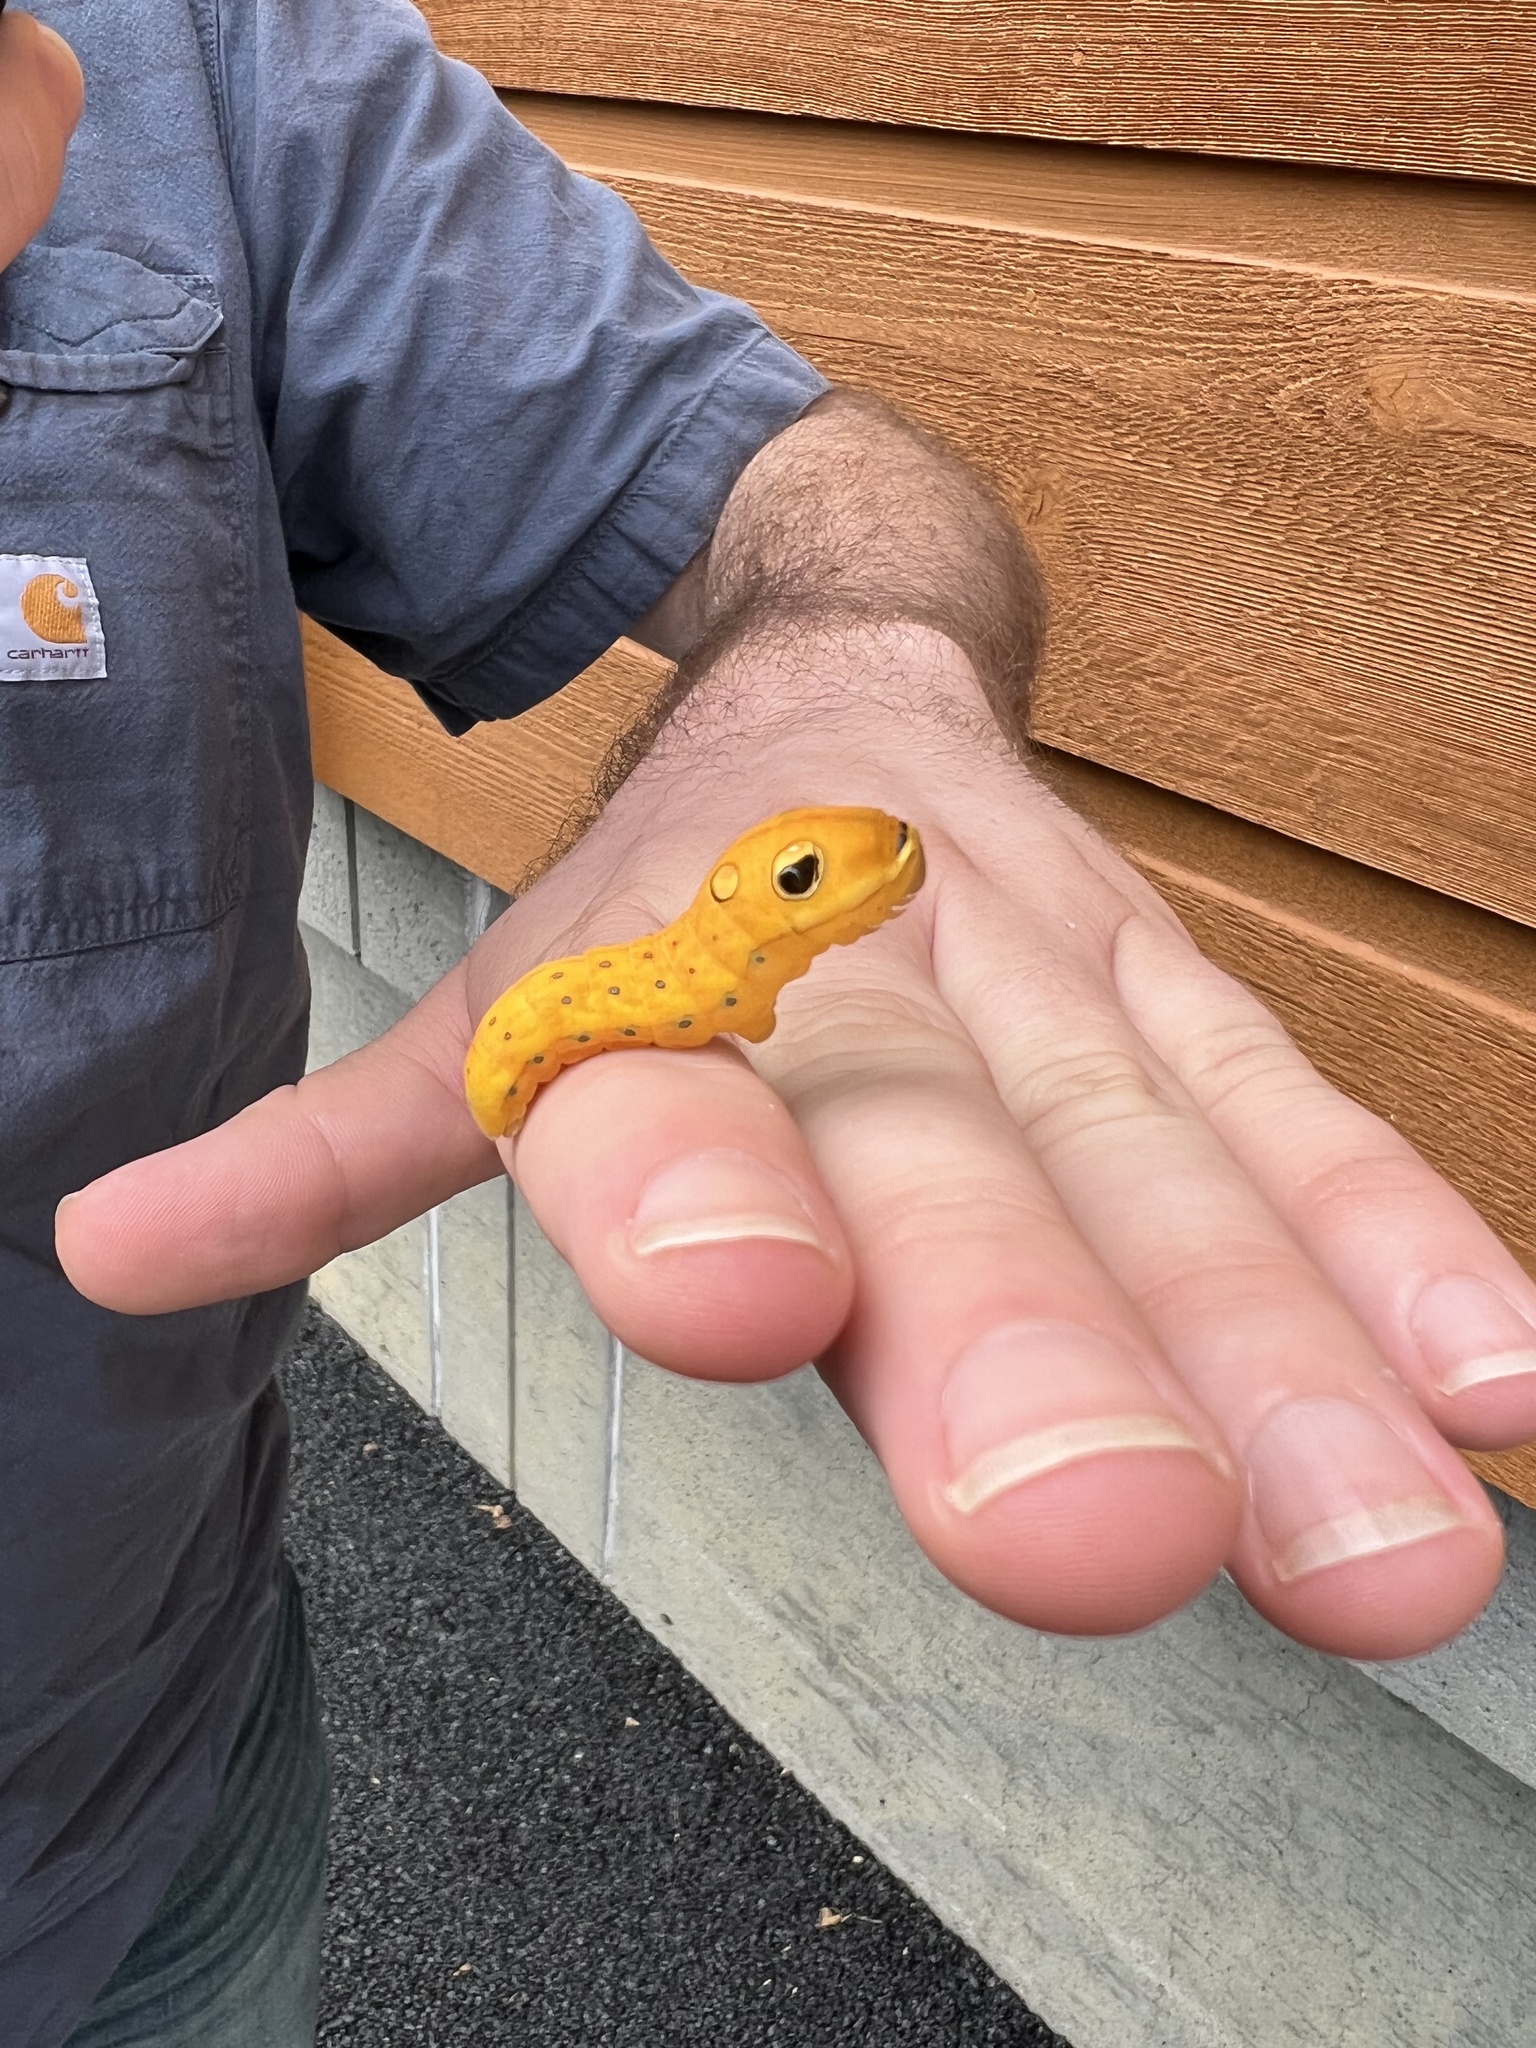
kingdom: Animalia
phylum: Arthropoda
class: Insecta
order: Lepidoptera
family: Papilionidae
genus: Papilio
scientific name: Papilio troilus
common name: Spicebush swallowtail
